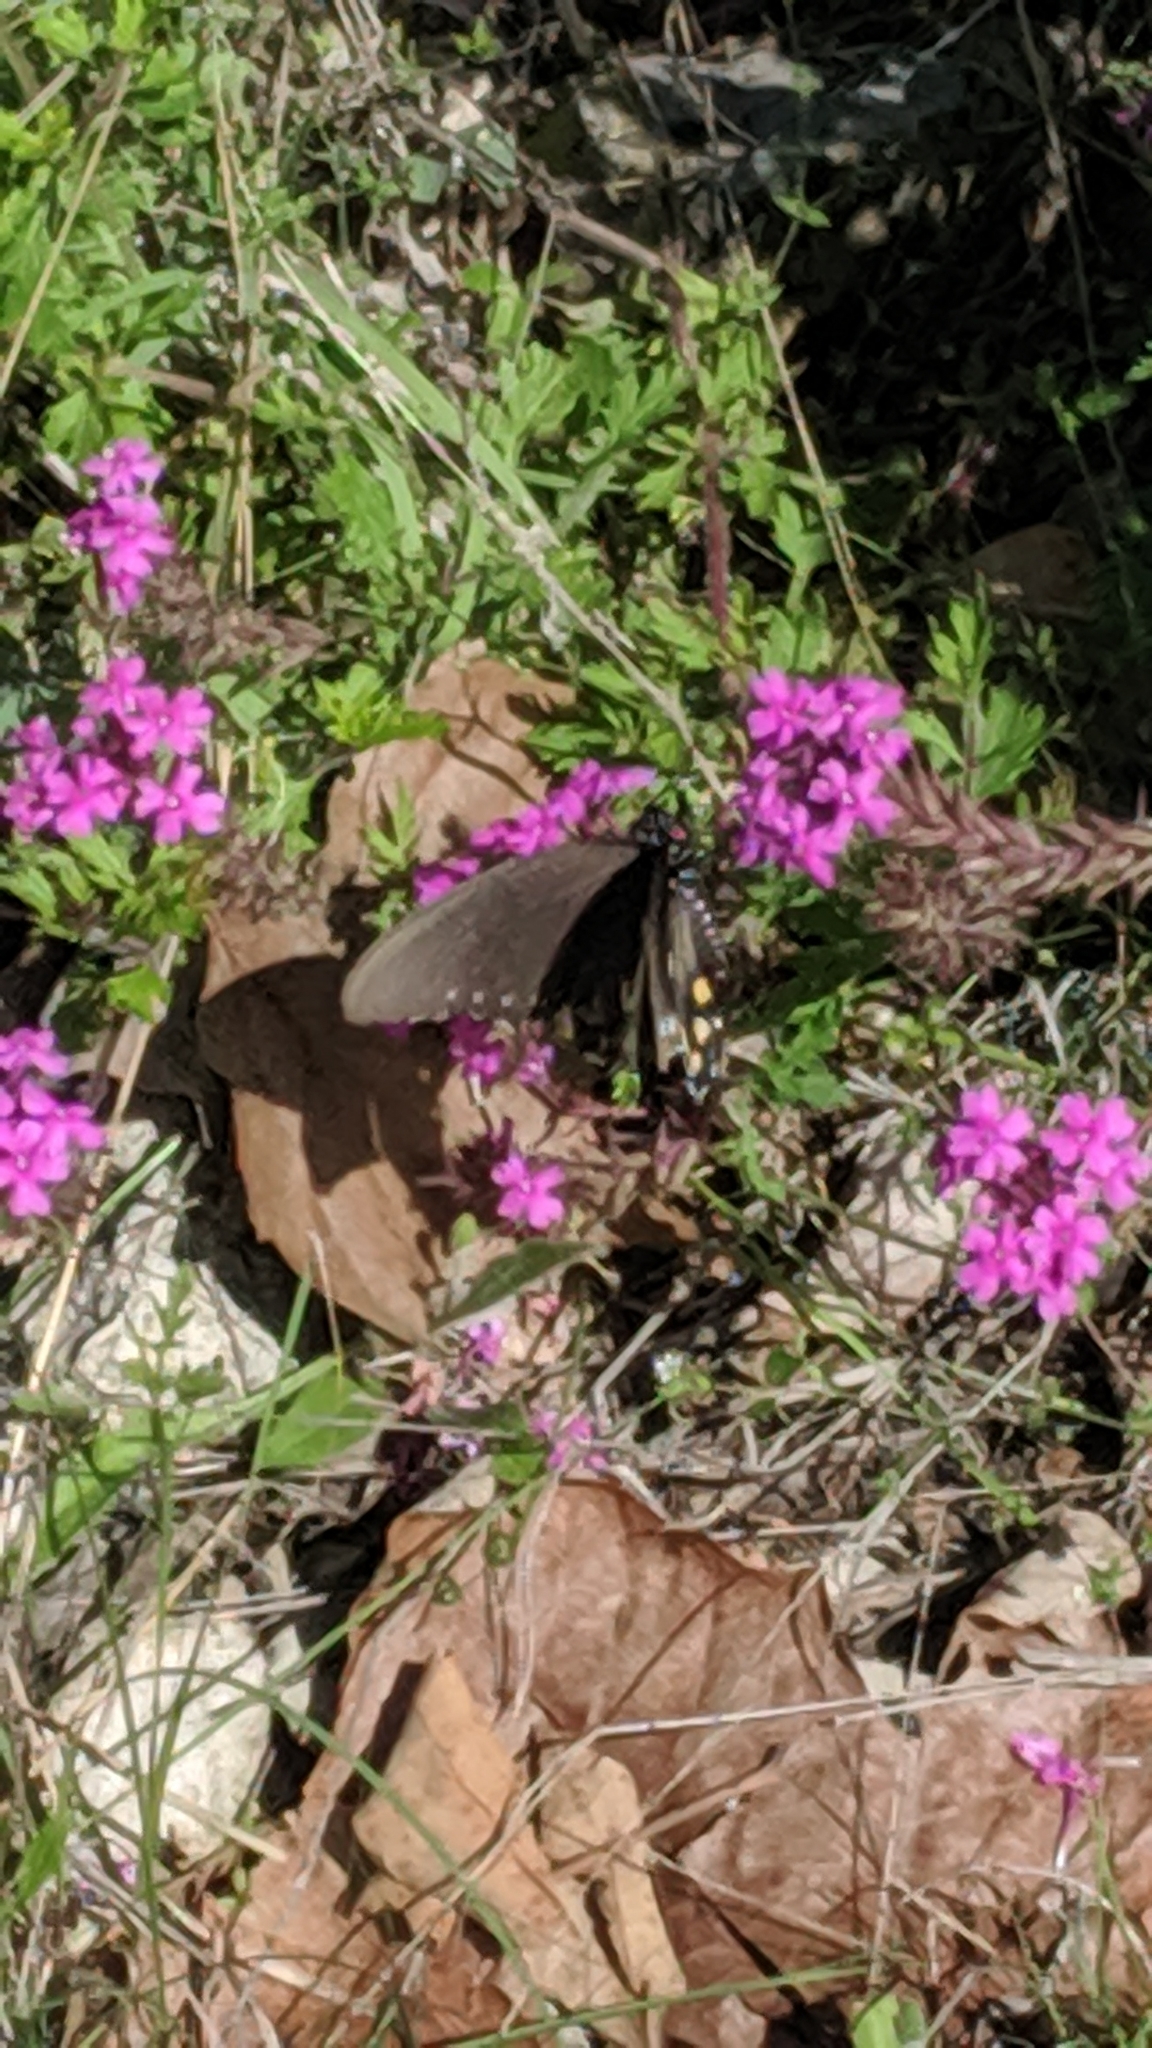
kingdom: Animalia
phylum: Arthropoda
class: Insecta
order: Lepidoptera
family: Papilionidae
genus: Battus
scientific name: Battus philenor
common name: Pipevine swallowtail
